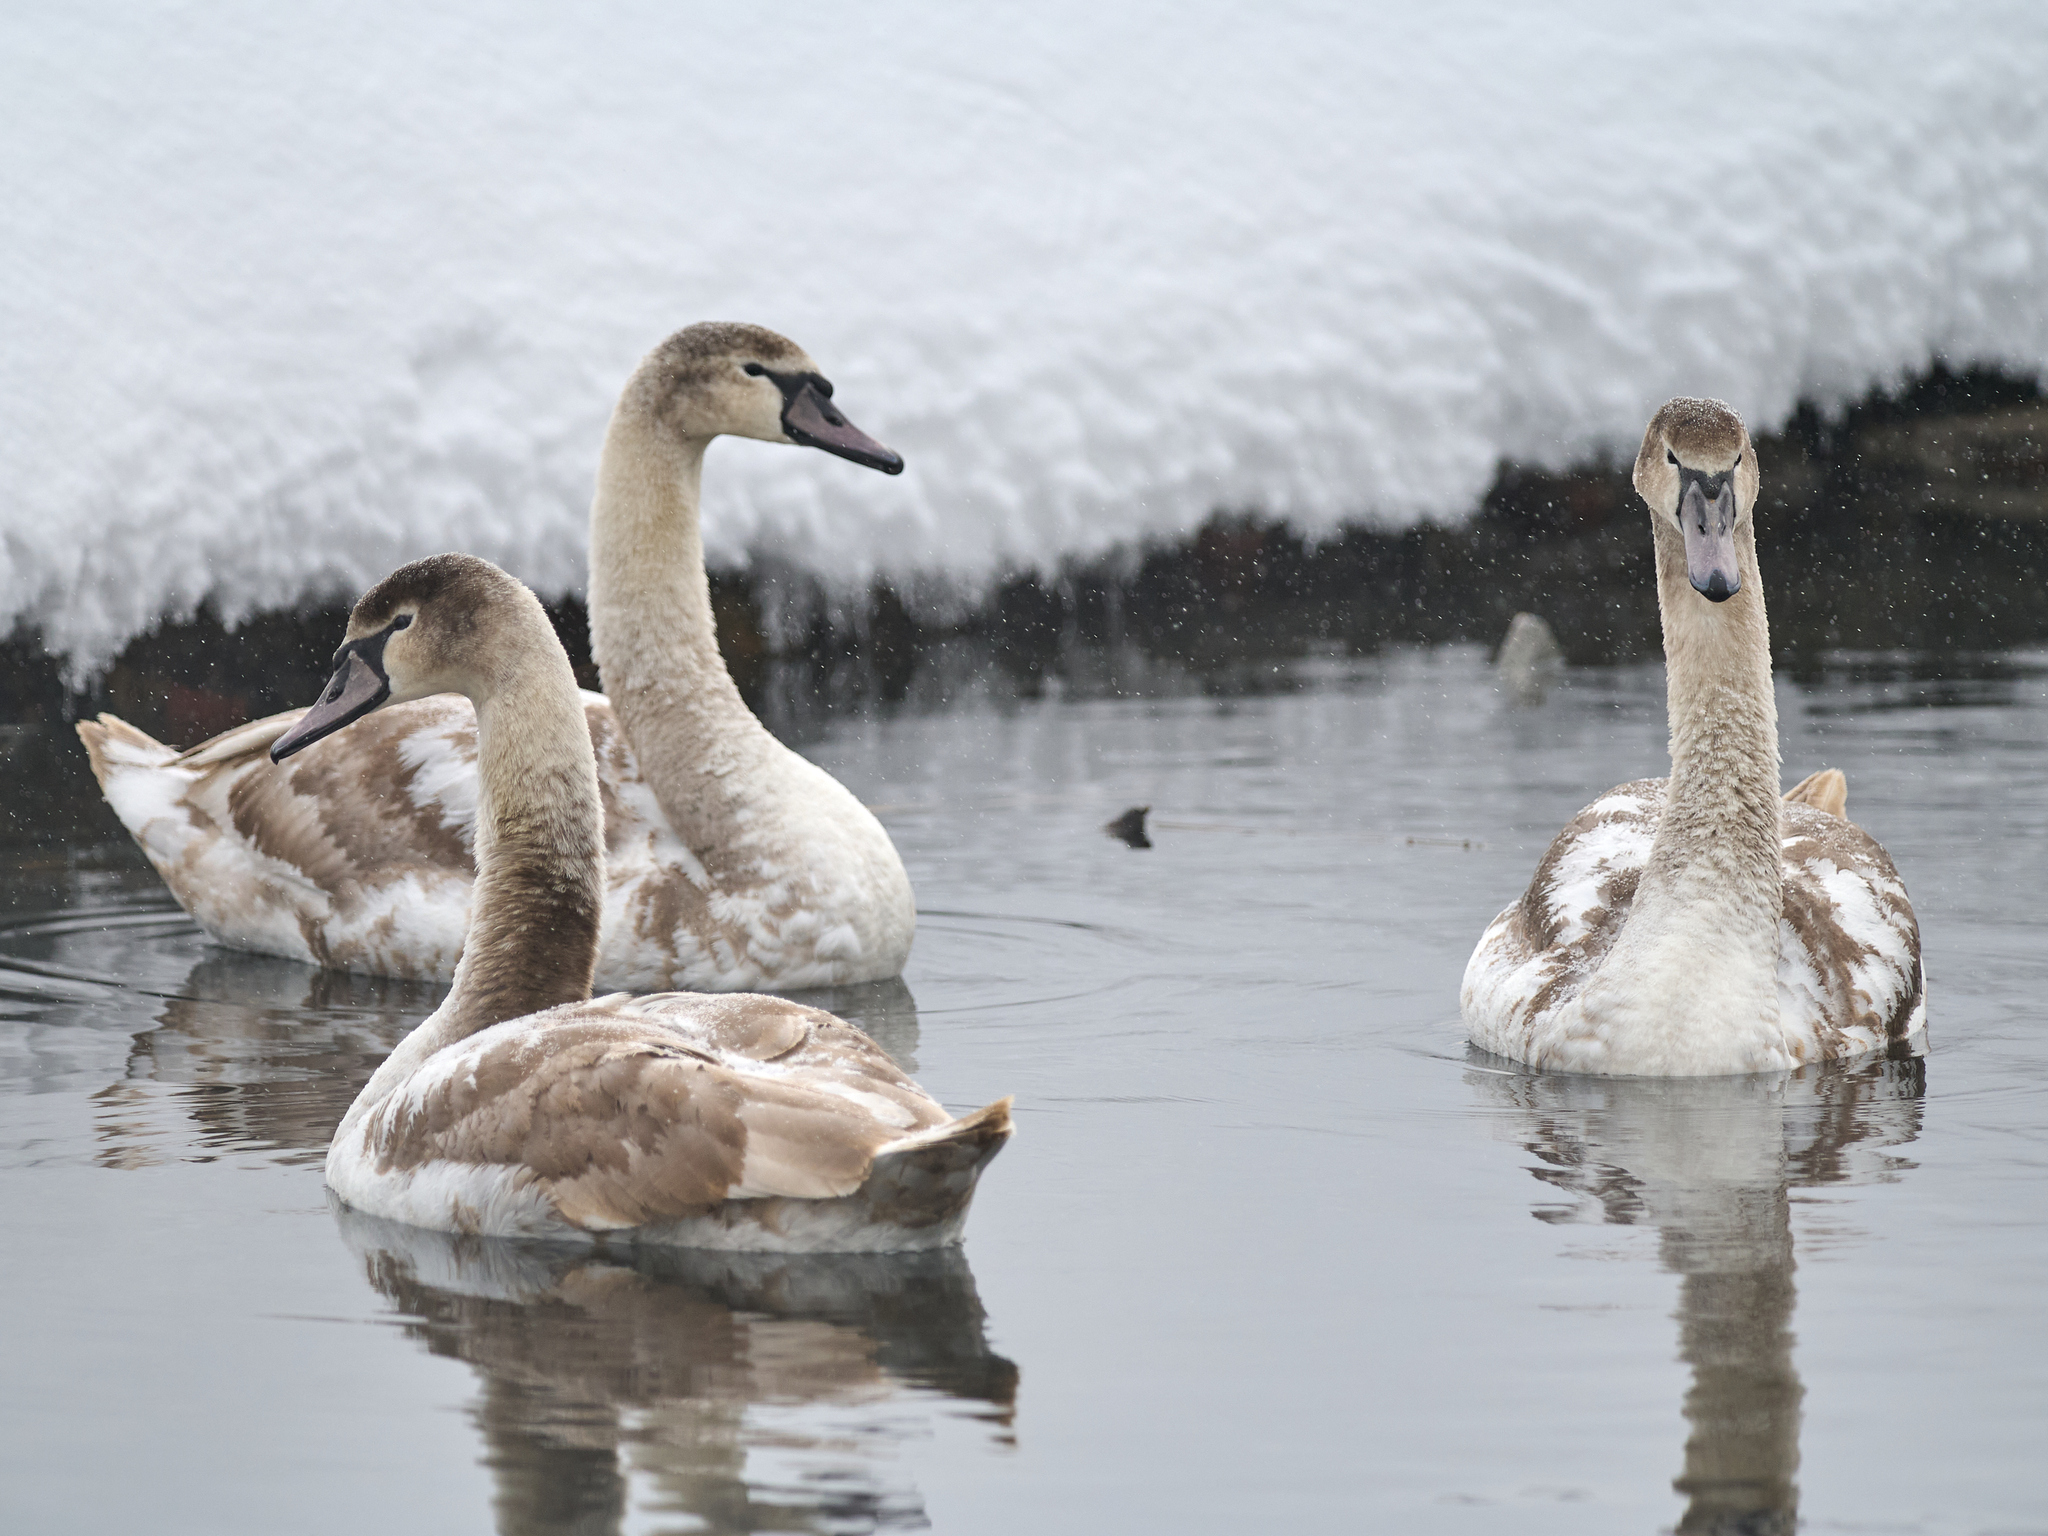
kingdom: Animalia
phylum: Chordata
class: Aves
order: Anseriformes
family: Anatidae
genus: Cygnus
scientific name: Cygnus olor
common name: Mute swan
